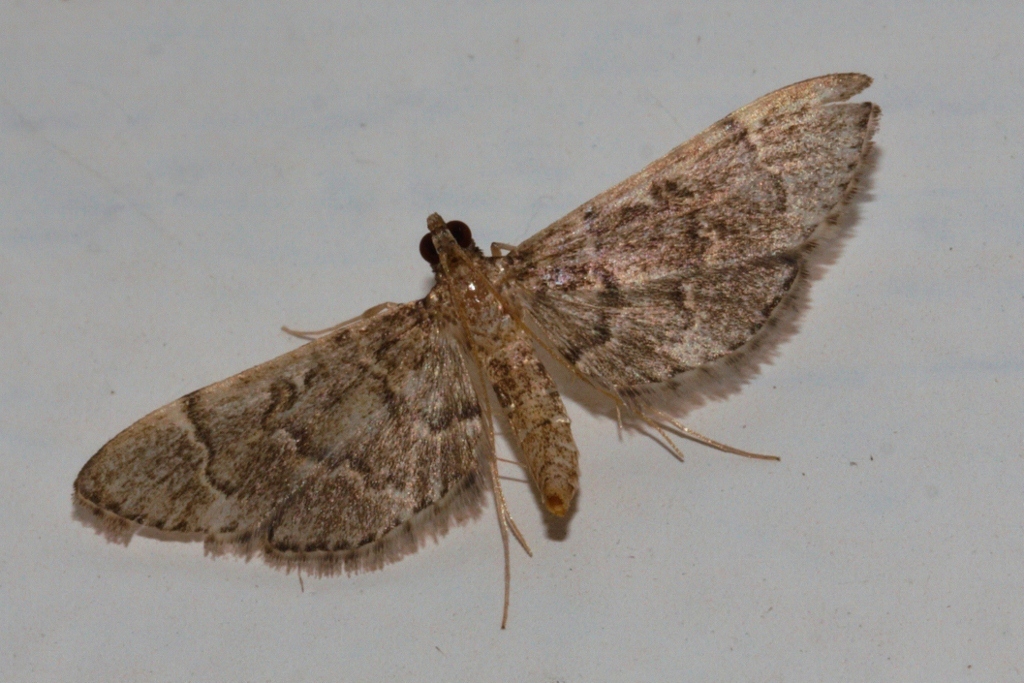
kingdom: Animalia
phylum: Arthropoda
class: Insecta
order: Lepidoptera
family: Crambidae
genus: Duponchelia
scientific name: Duponchelia lanceolalis
